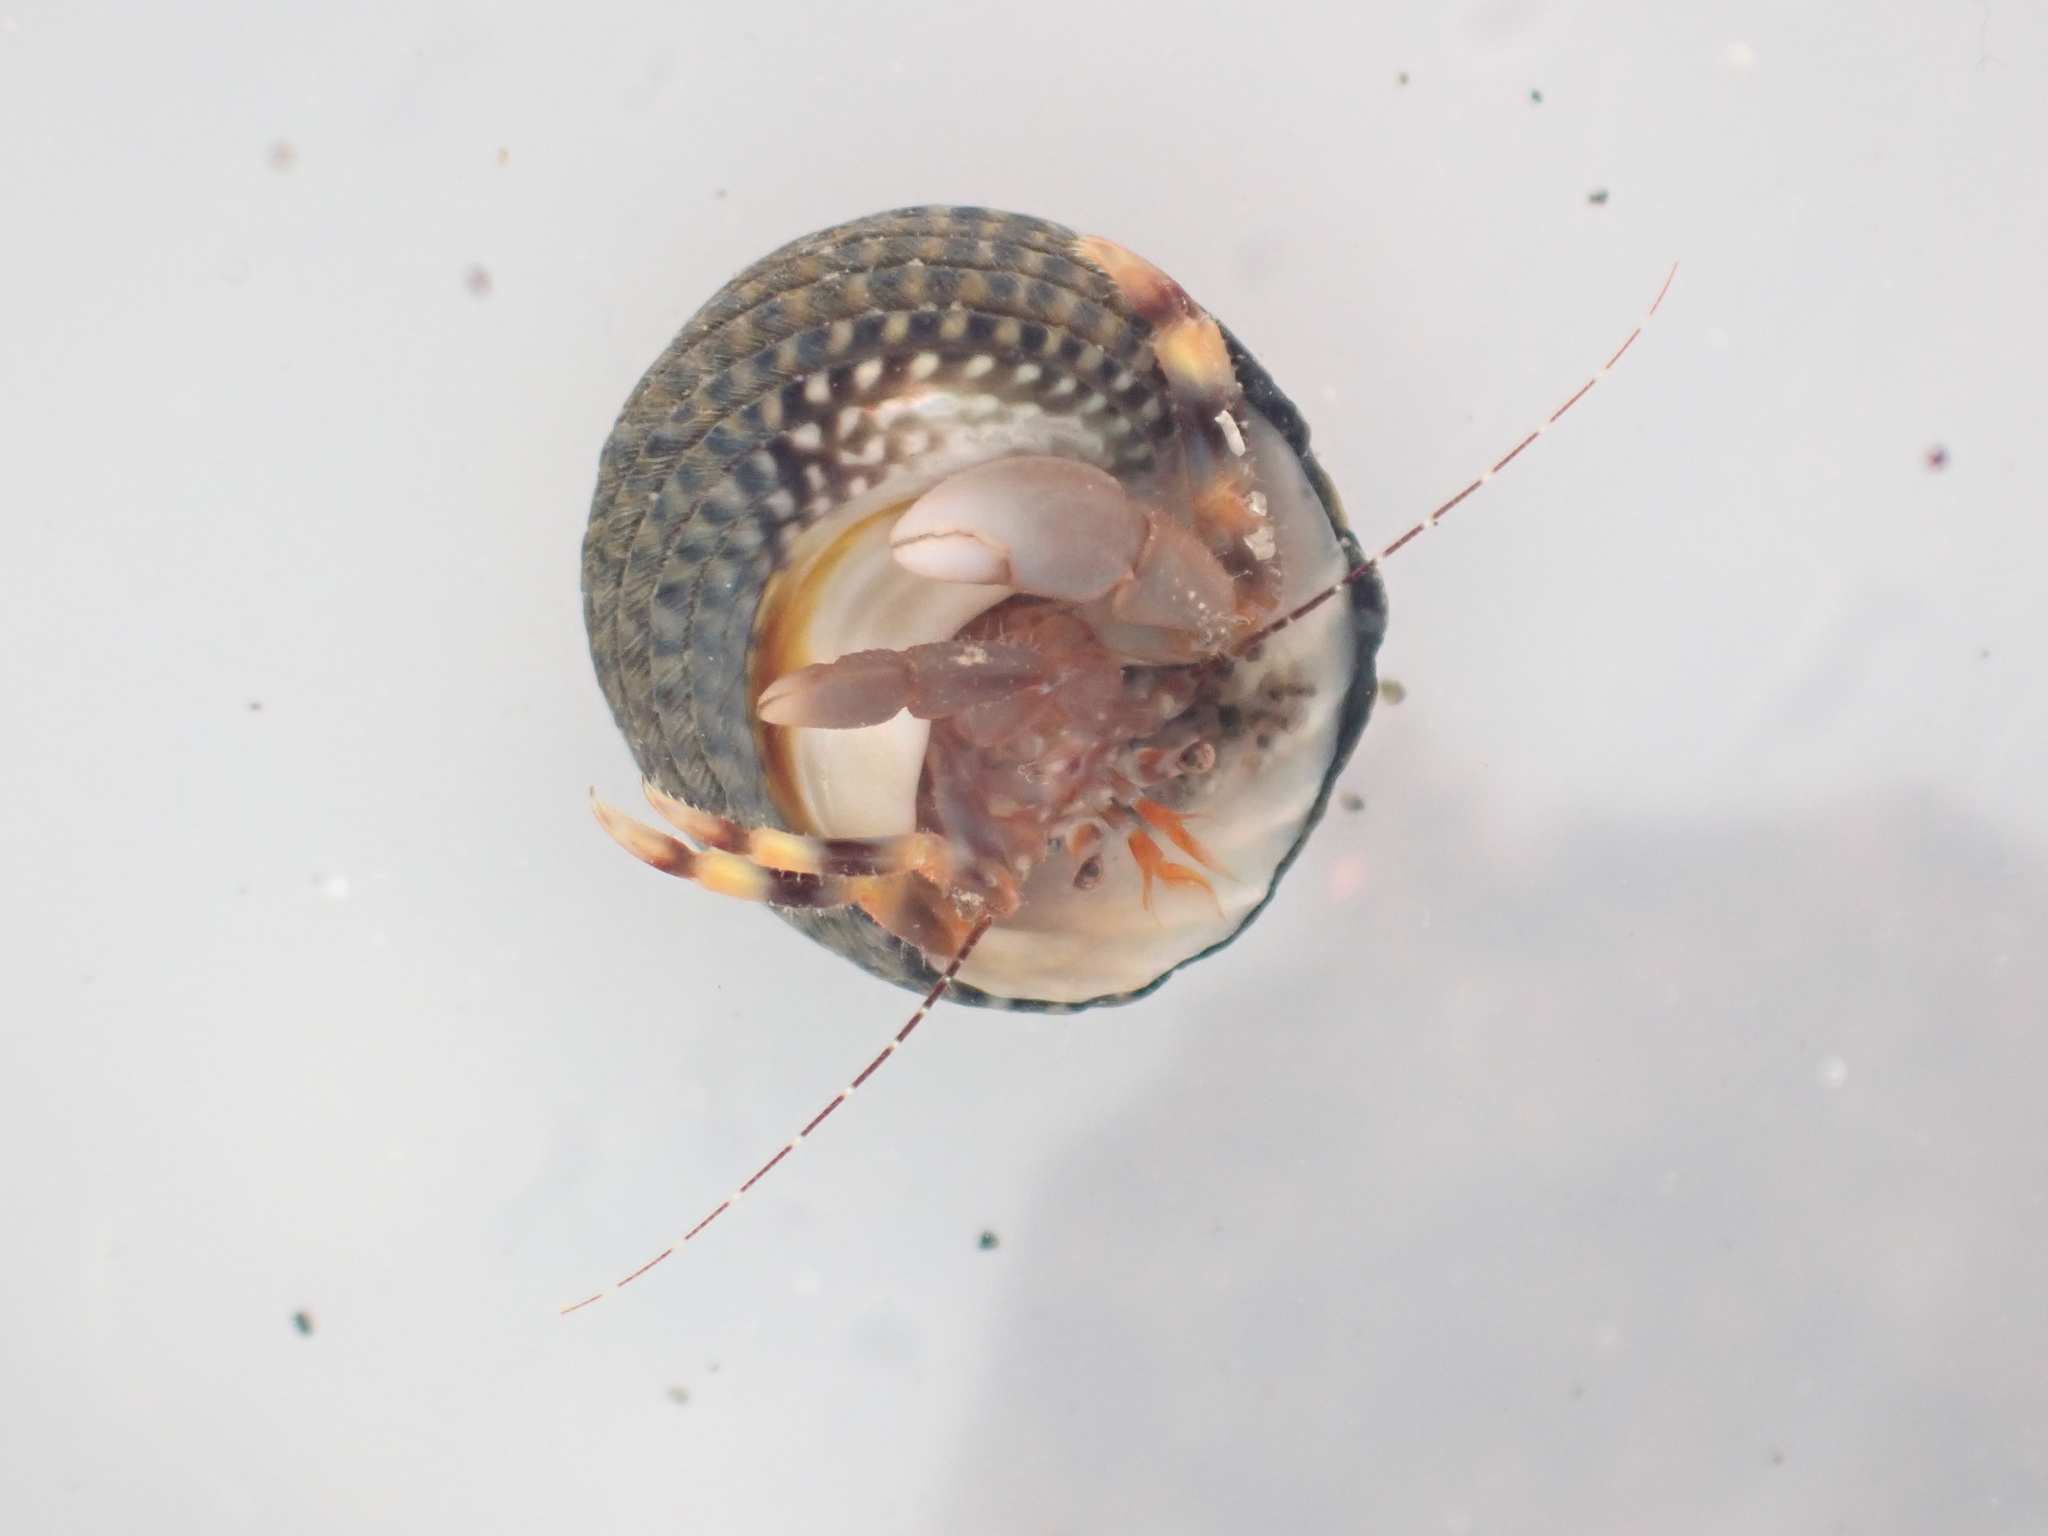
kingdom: Animalia
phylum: Arthropoda
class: Malacostraca
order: Decapoda
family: Paguridae
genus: Pagurixus
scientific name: Pagurixus hectori
